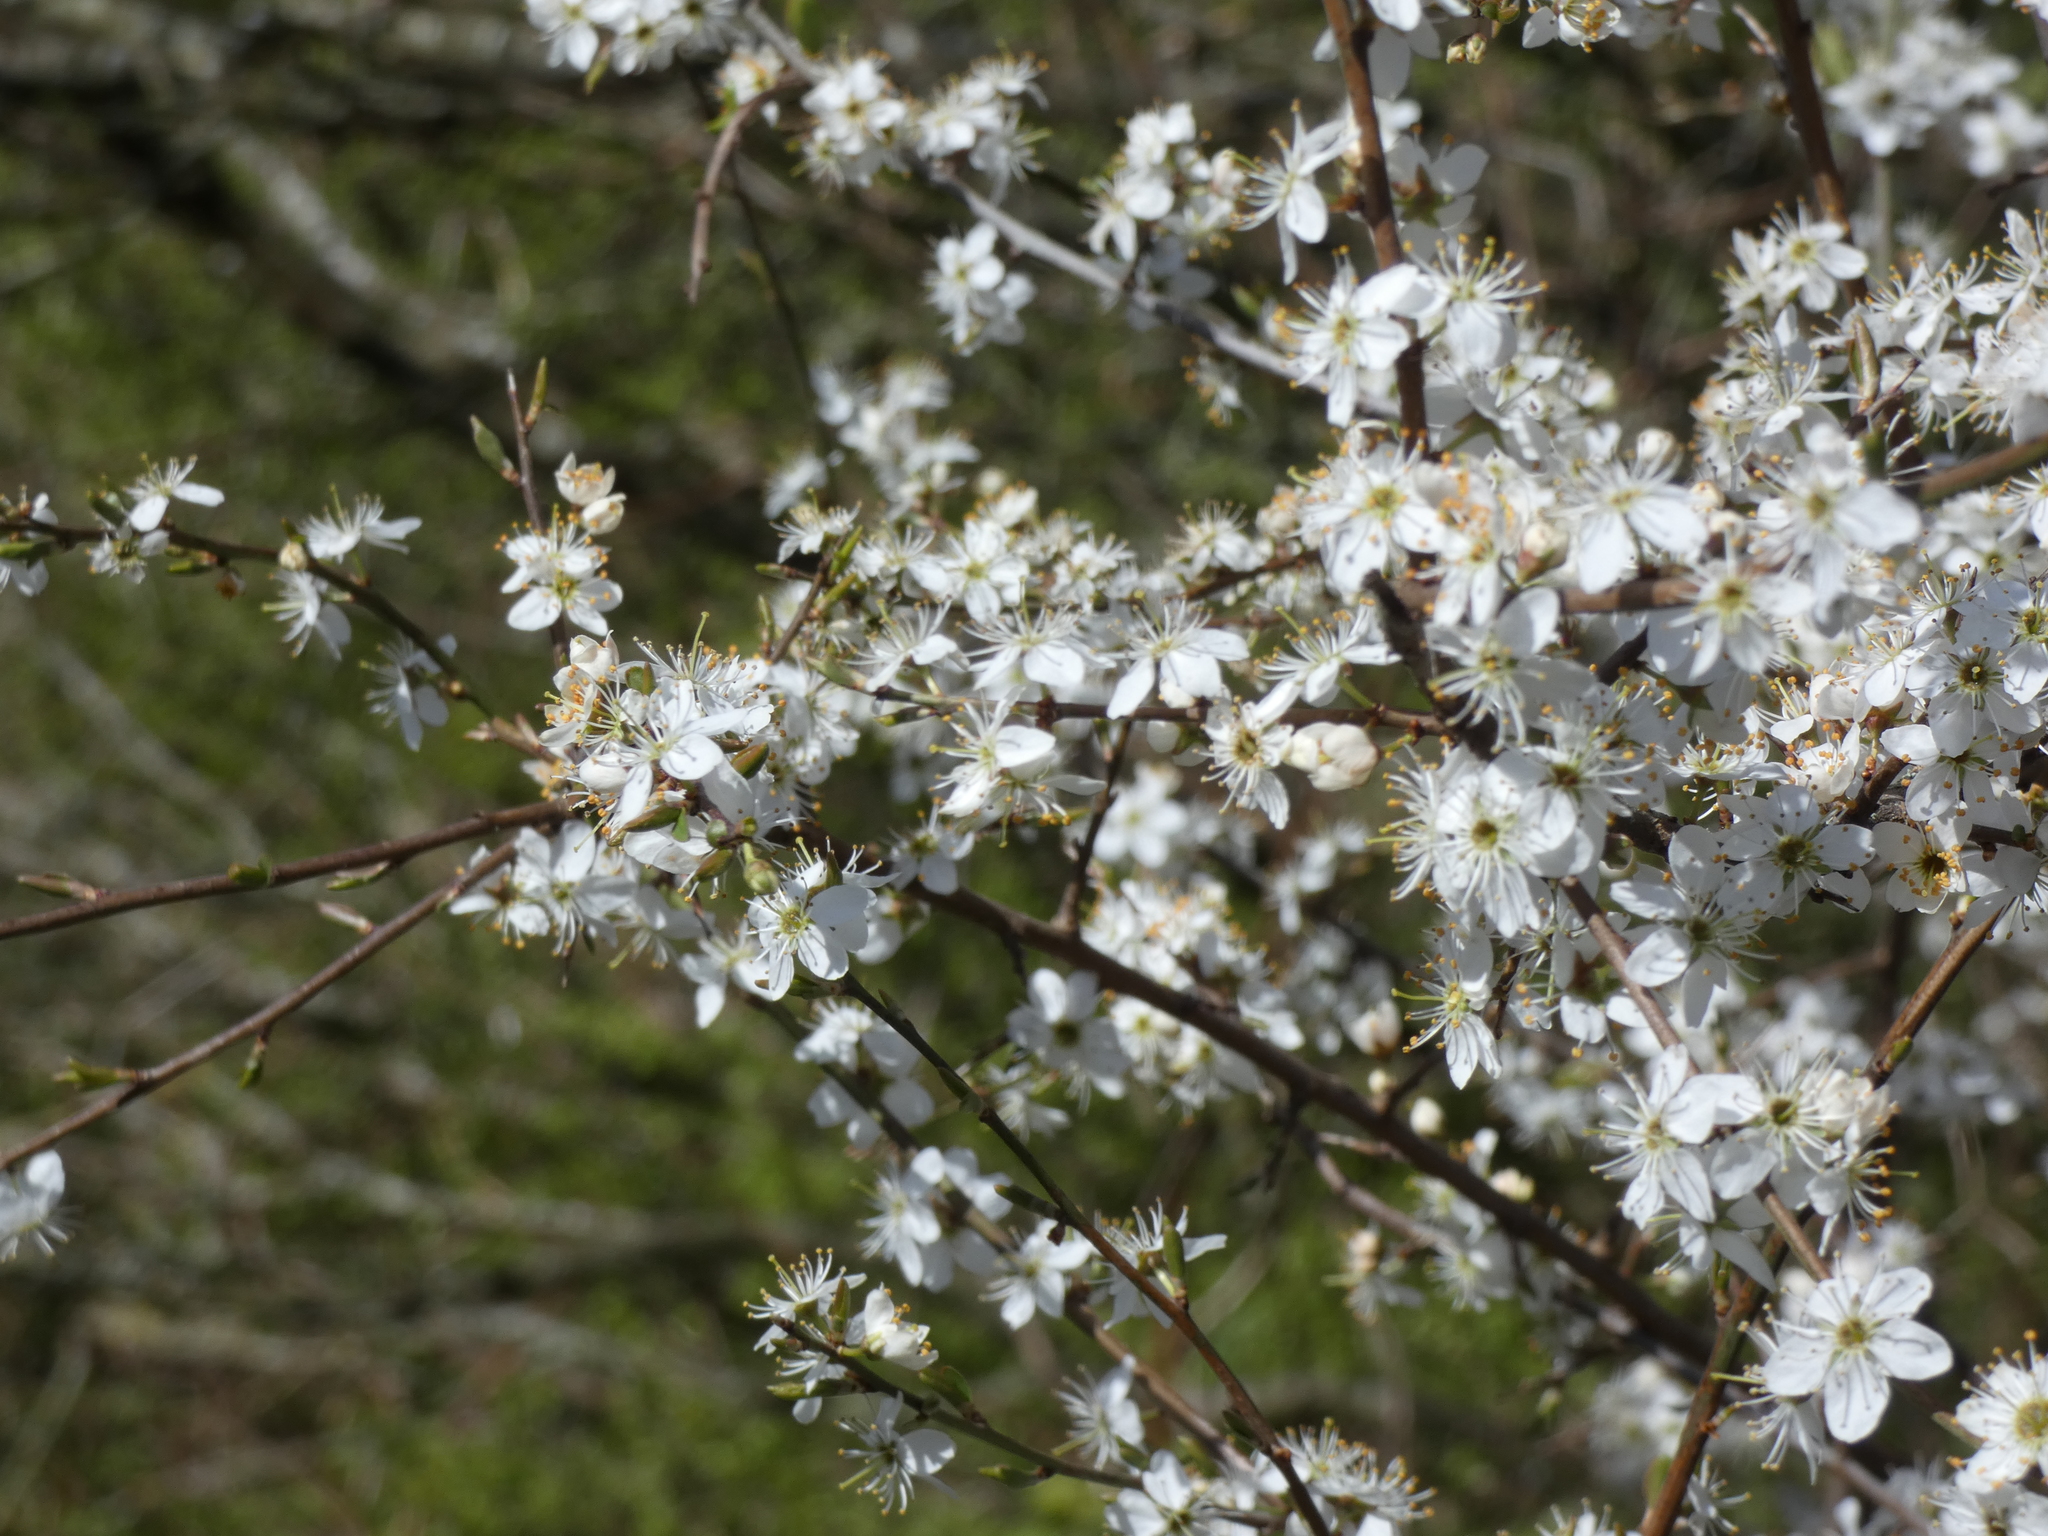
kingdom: Plantae
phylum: Tracheophyta
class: Magnoliopsida
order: Rosales
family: Rosaceae
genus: Prunus
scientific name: Prunus spinosa
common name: Blackthorn
